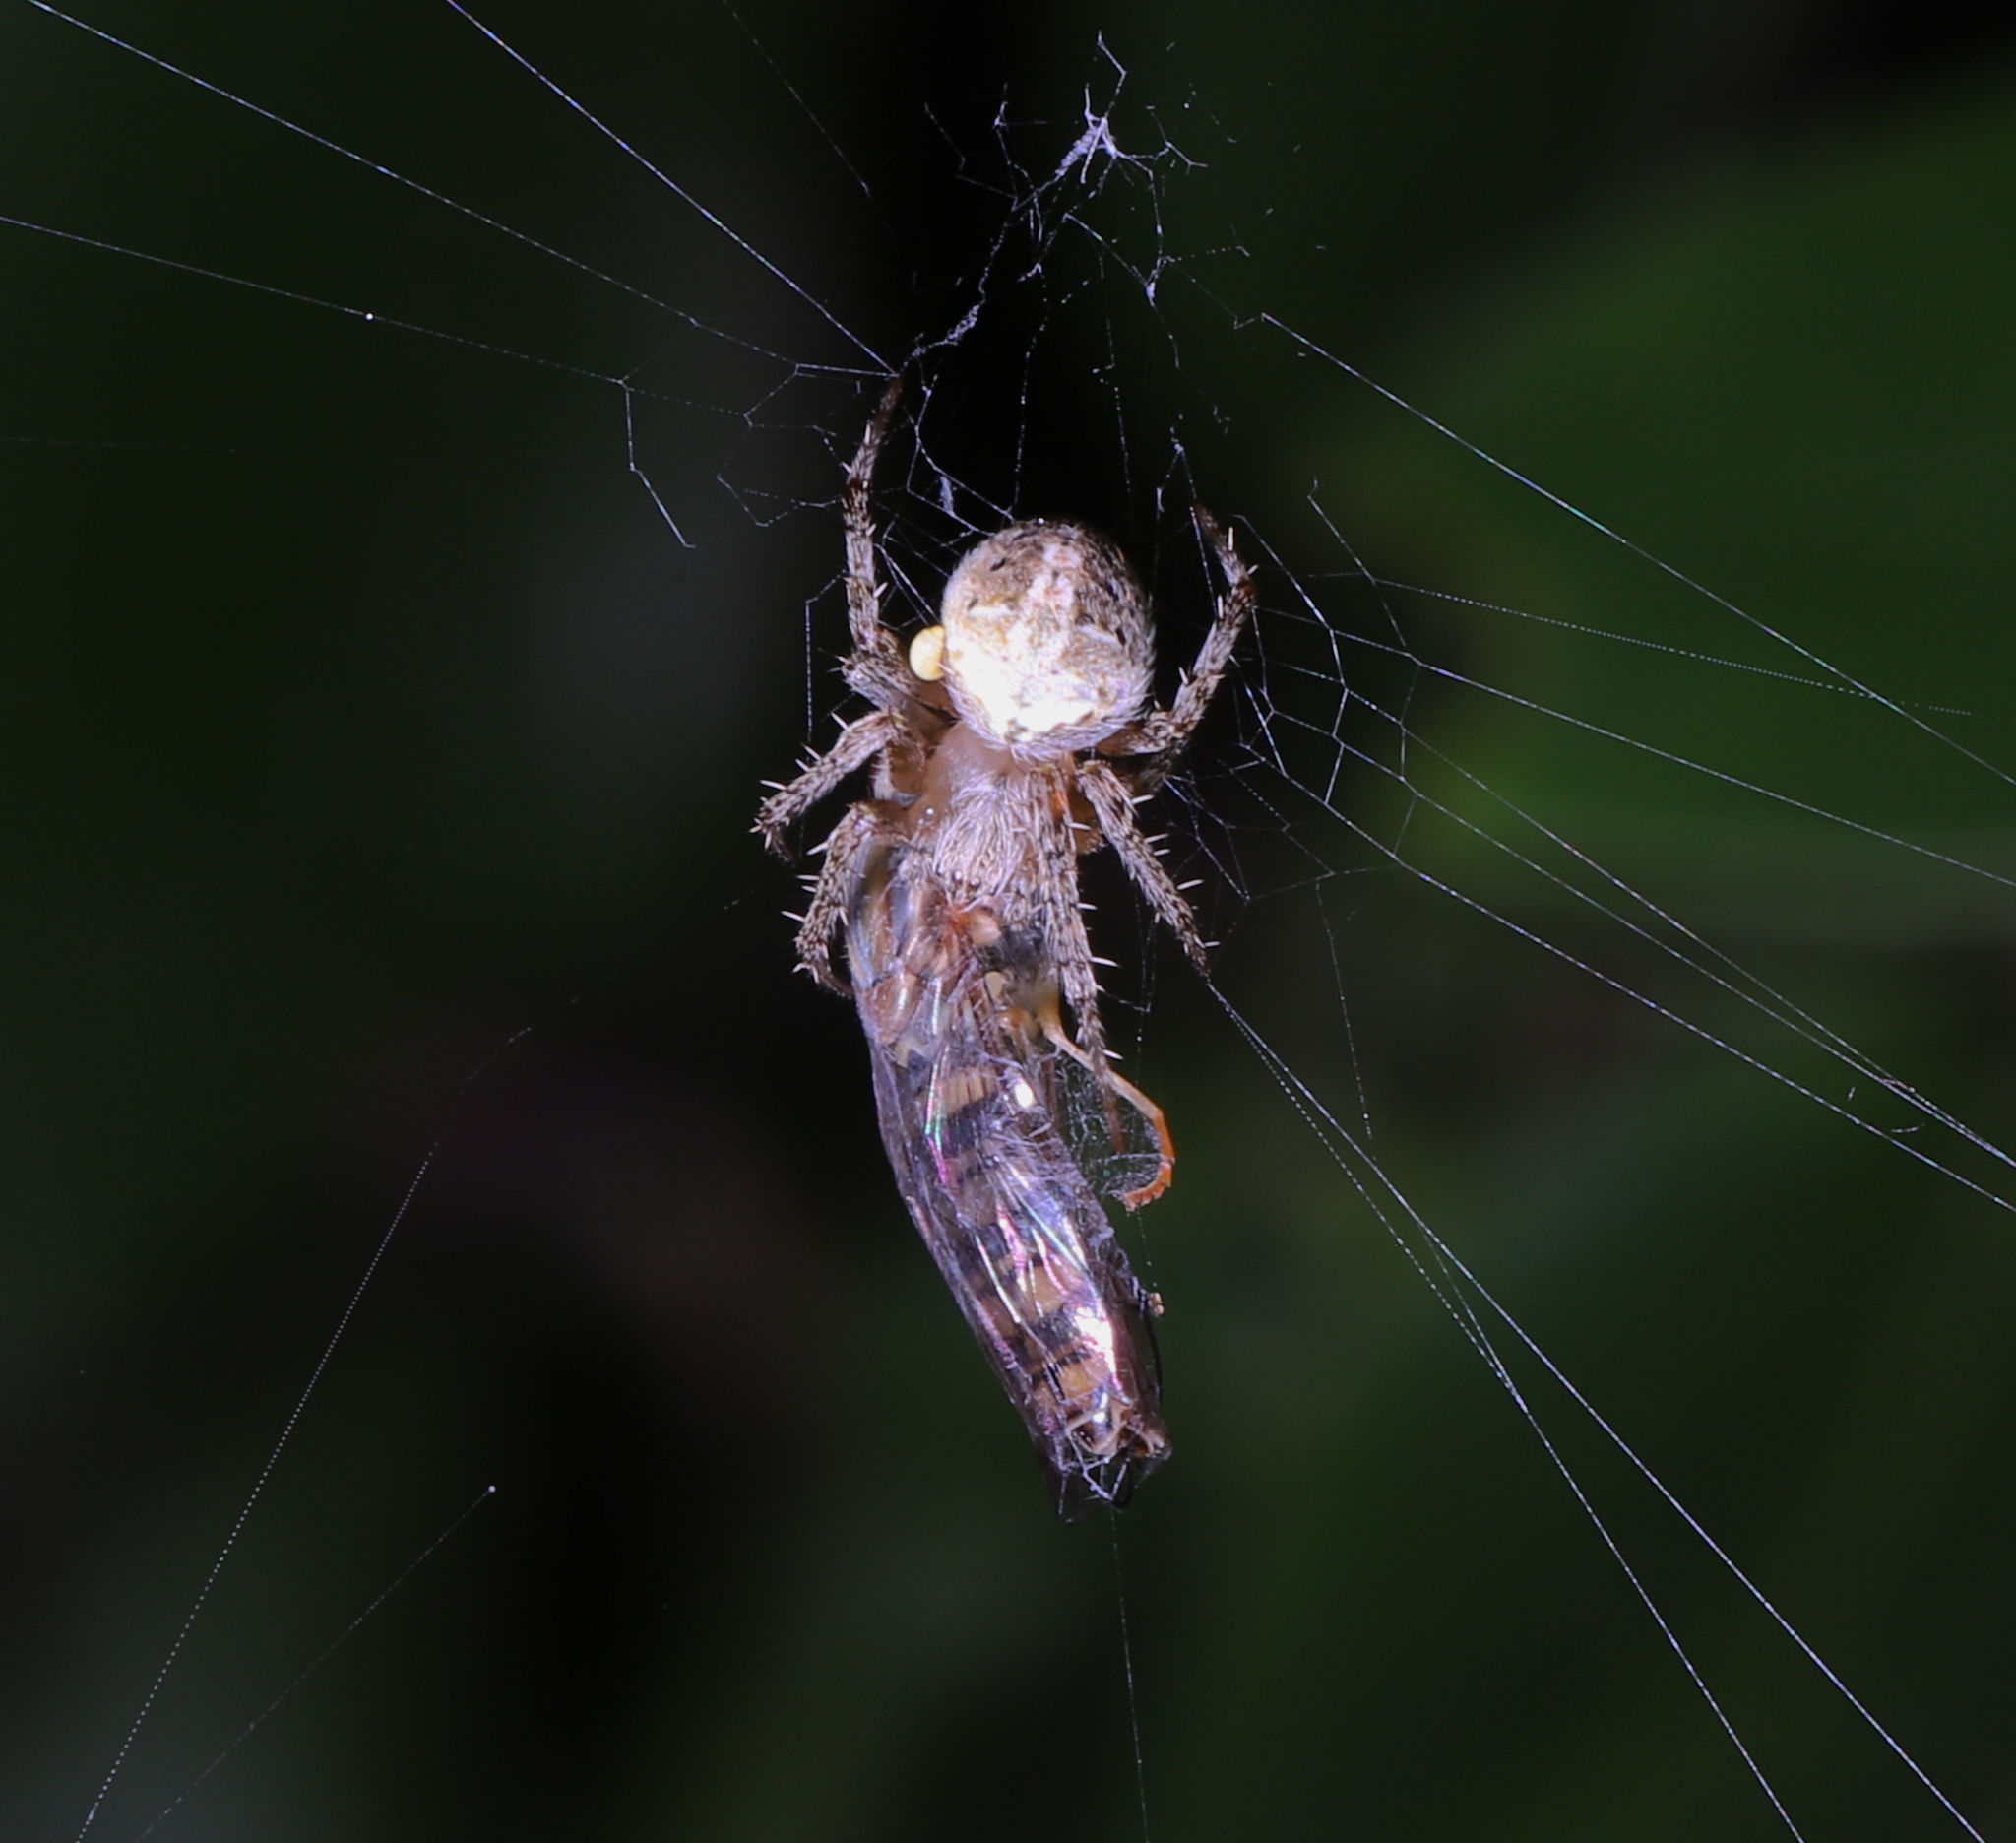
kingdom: Animalia
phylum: Arthropoda
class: Insecta
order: Diptera
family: Syrphidae
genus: Toxomerus
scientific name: Toxomerus politus
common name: Maize calligrapher
